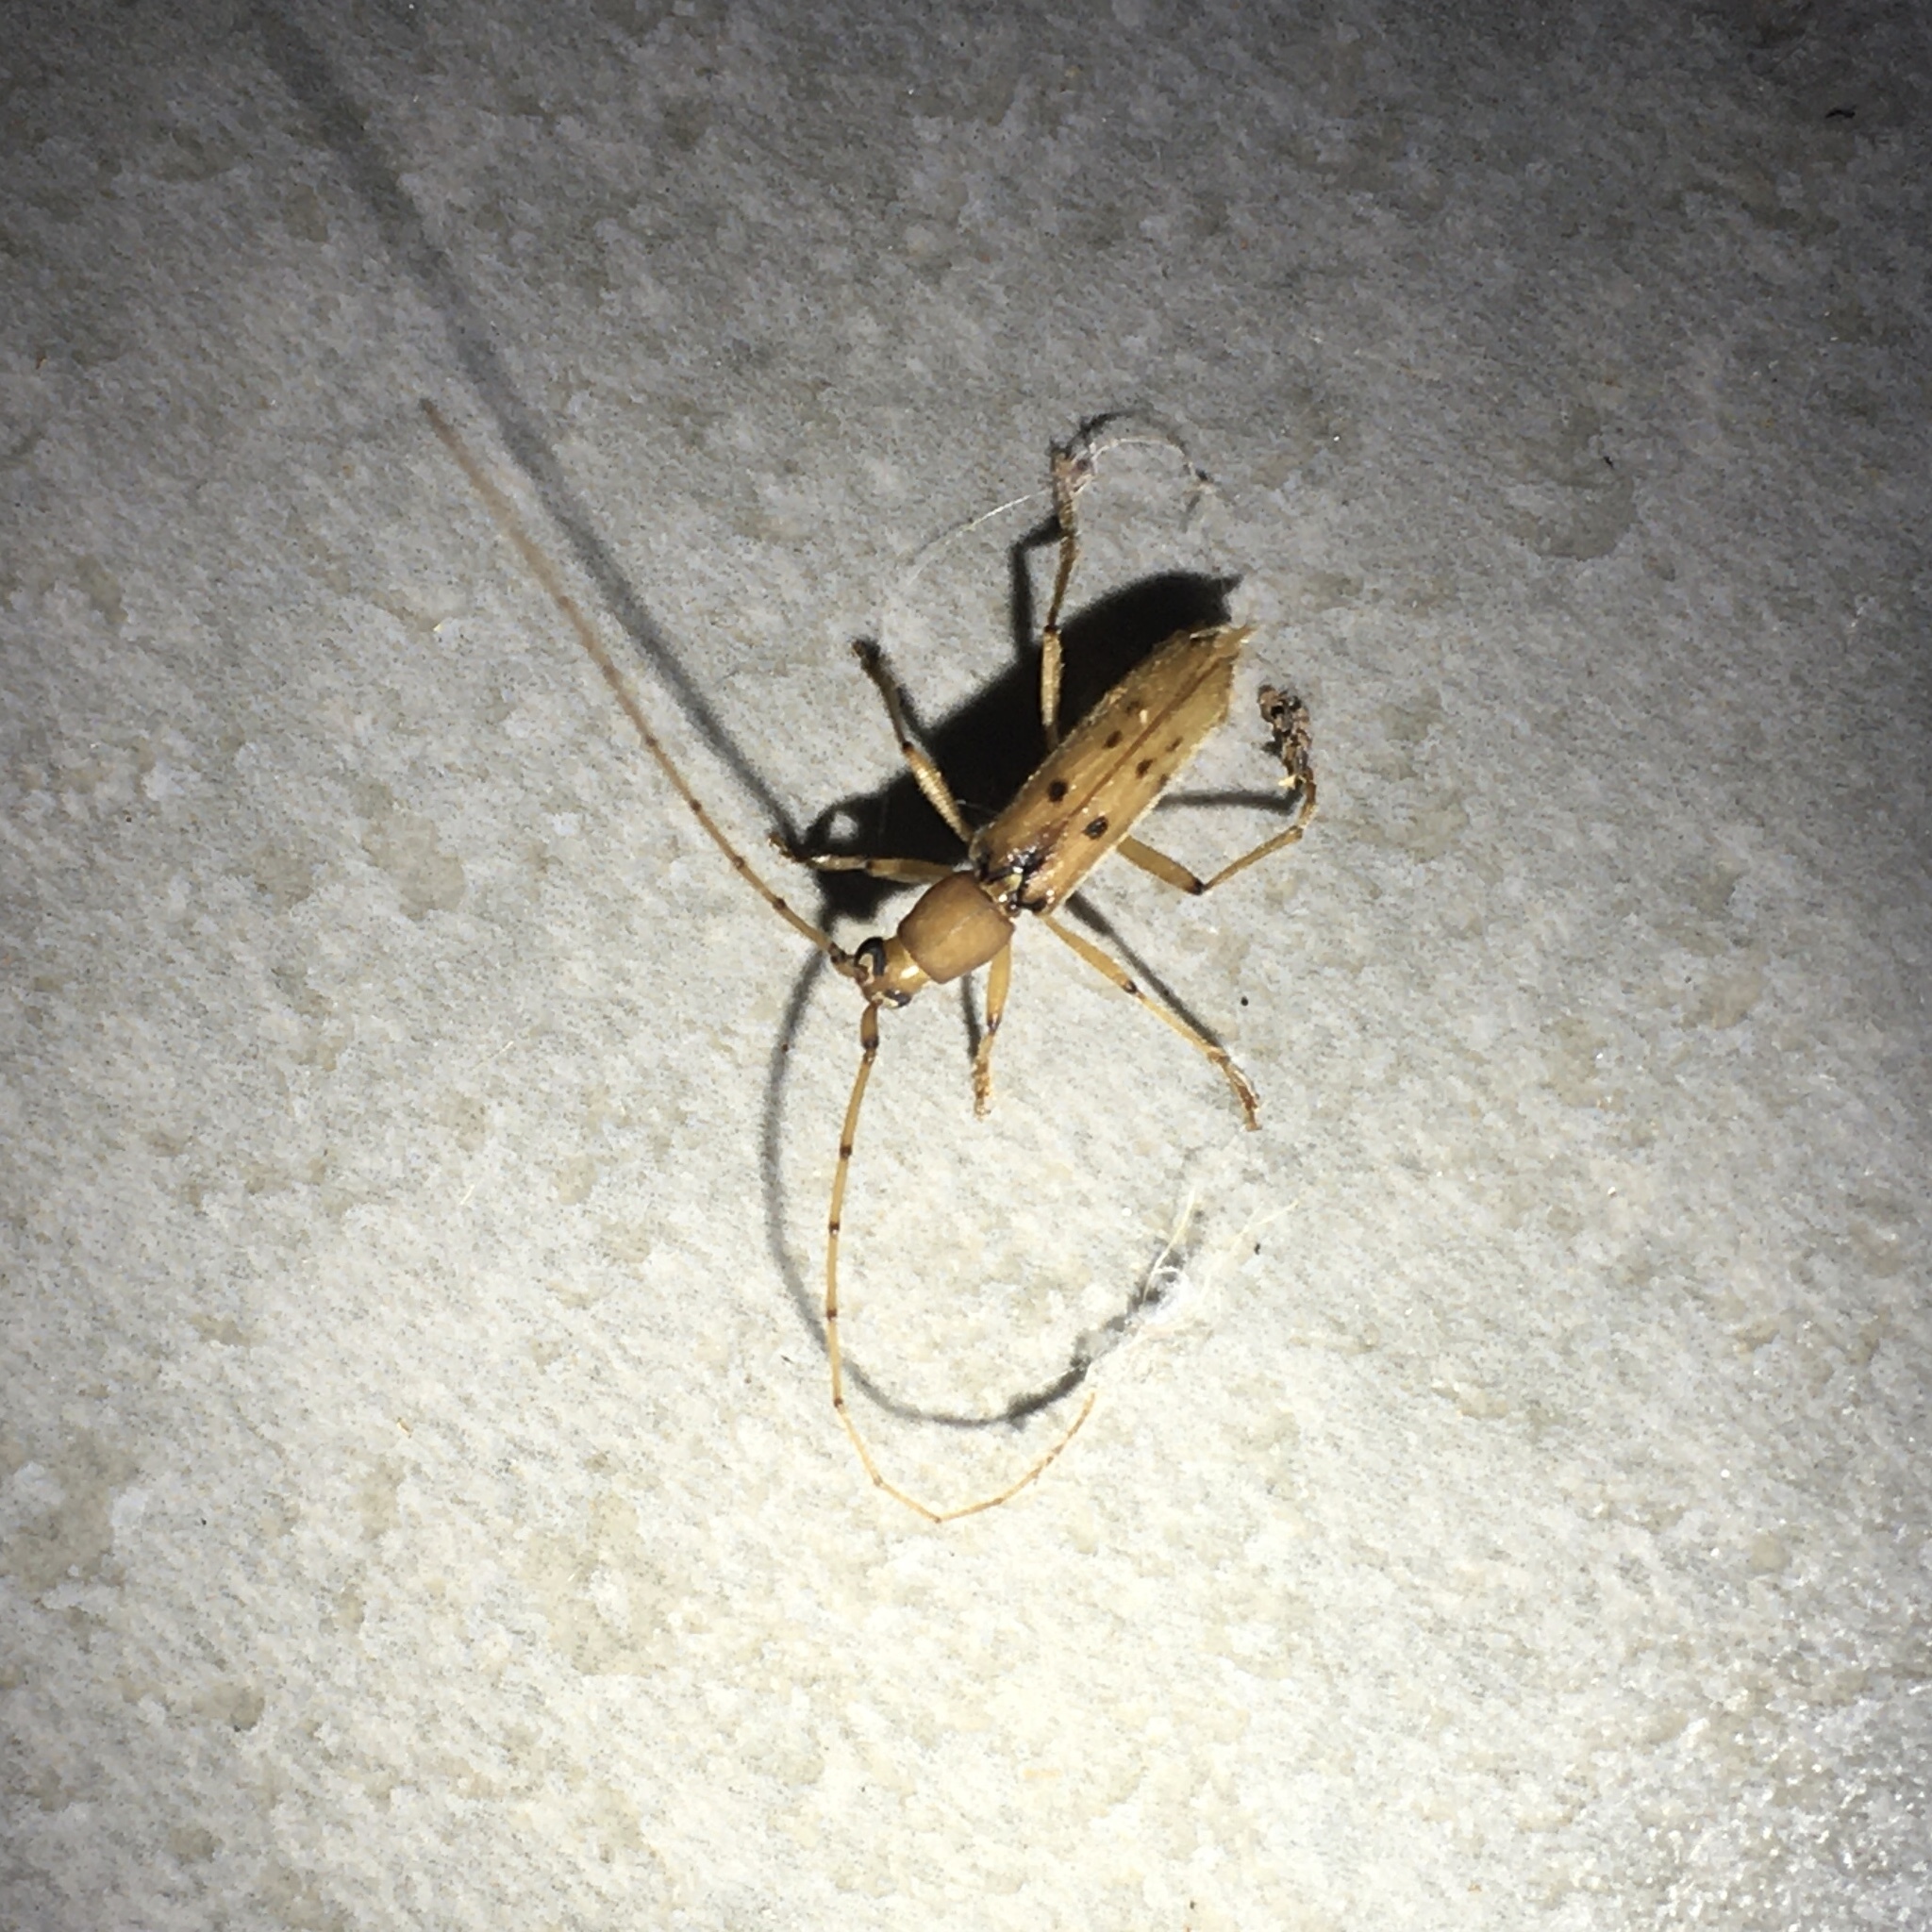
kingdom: Animalia
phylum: Arthropoda
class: Insecta
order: Coleoptera
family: Cerambycidae
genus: Achryson
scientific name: Achryson surinamum
